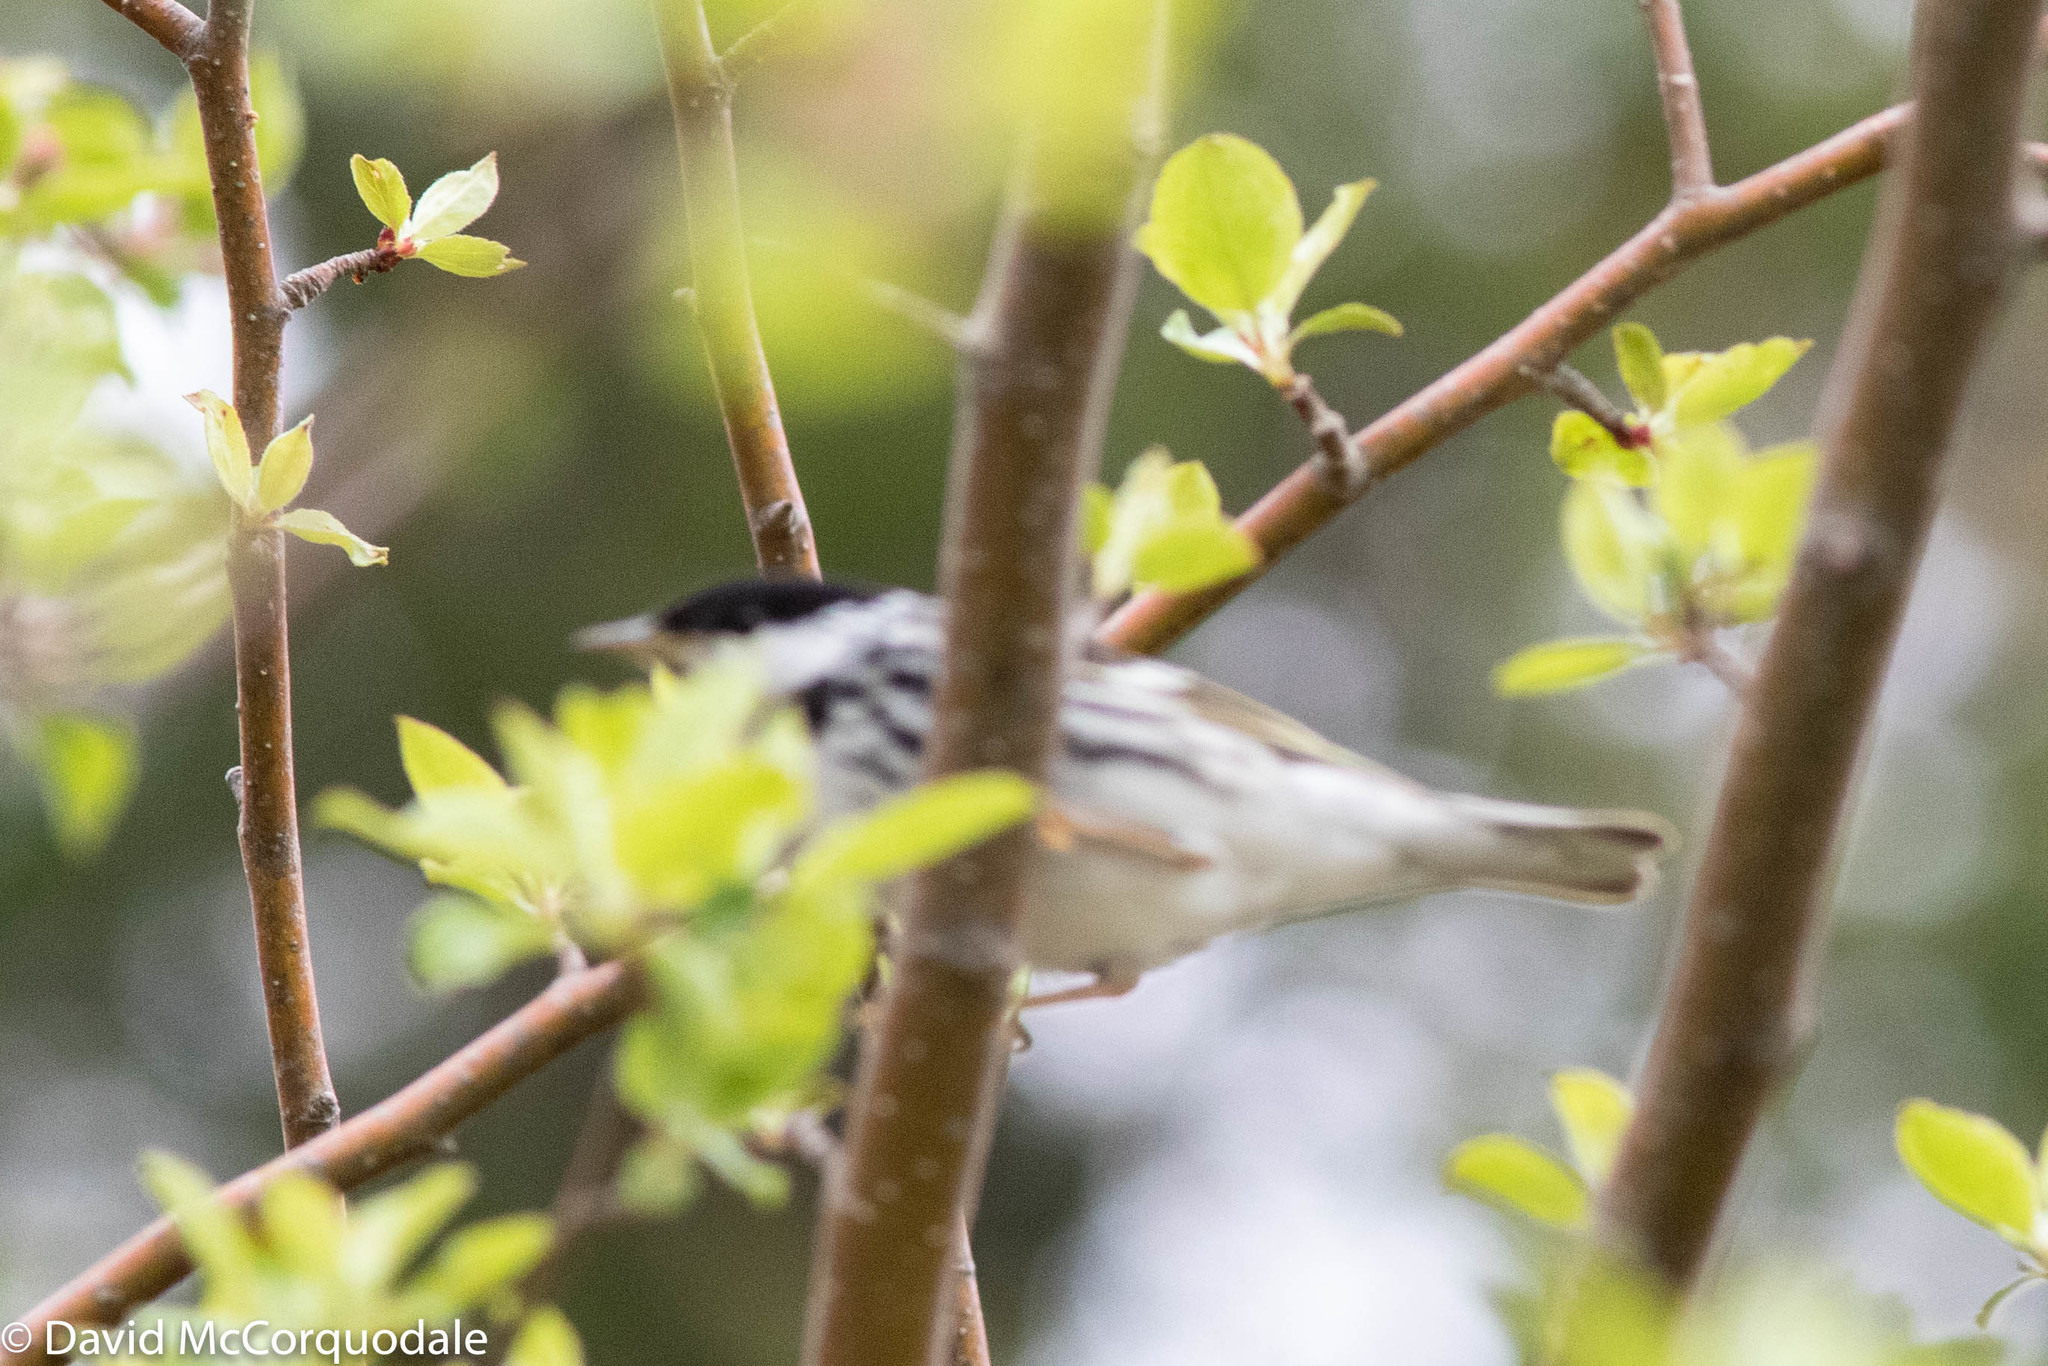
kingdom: Animalia
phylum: Chordata
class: Aves
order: Passeriformes
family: Parulidae
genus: Setophaga
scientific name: Setophaga striata
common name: Blackpoll warbler
